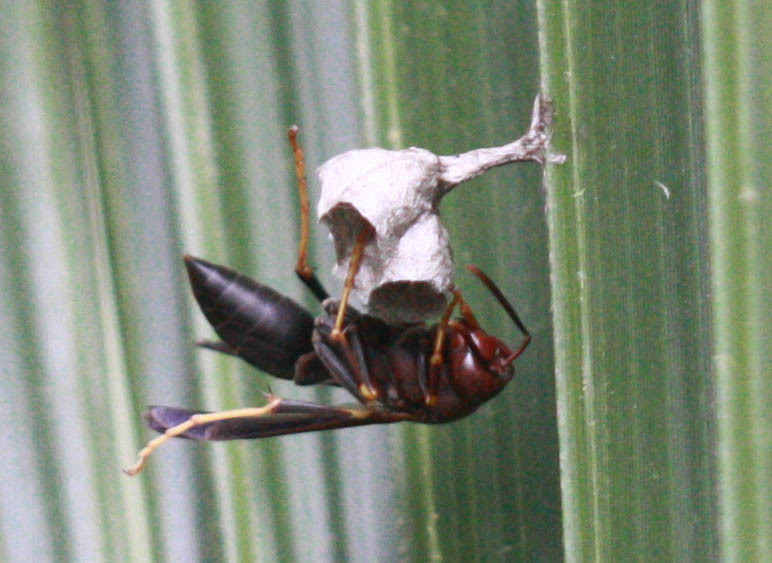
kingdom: Animalia
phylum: Arthropoda
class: Insecta
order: Hymenoptera
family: Eumenidae
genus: Polistes
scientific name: Polistes metricus
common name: Metric paper wasp
